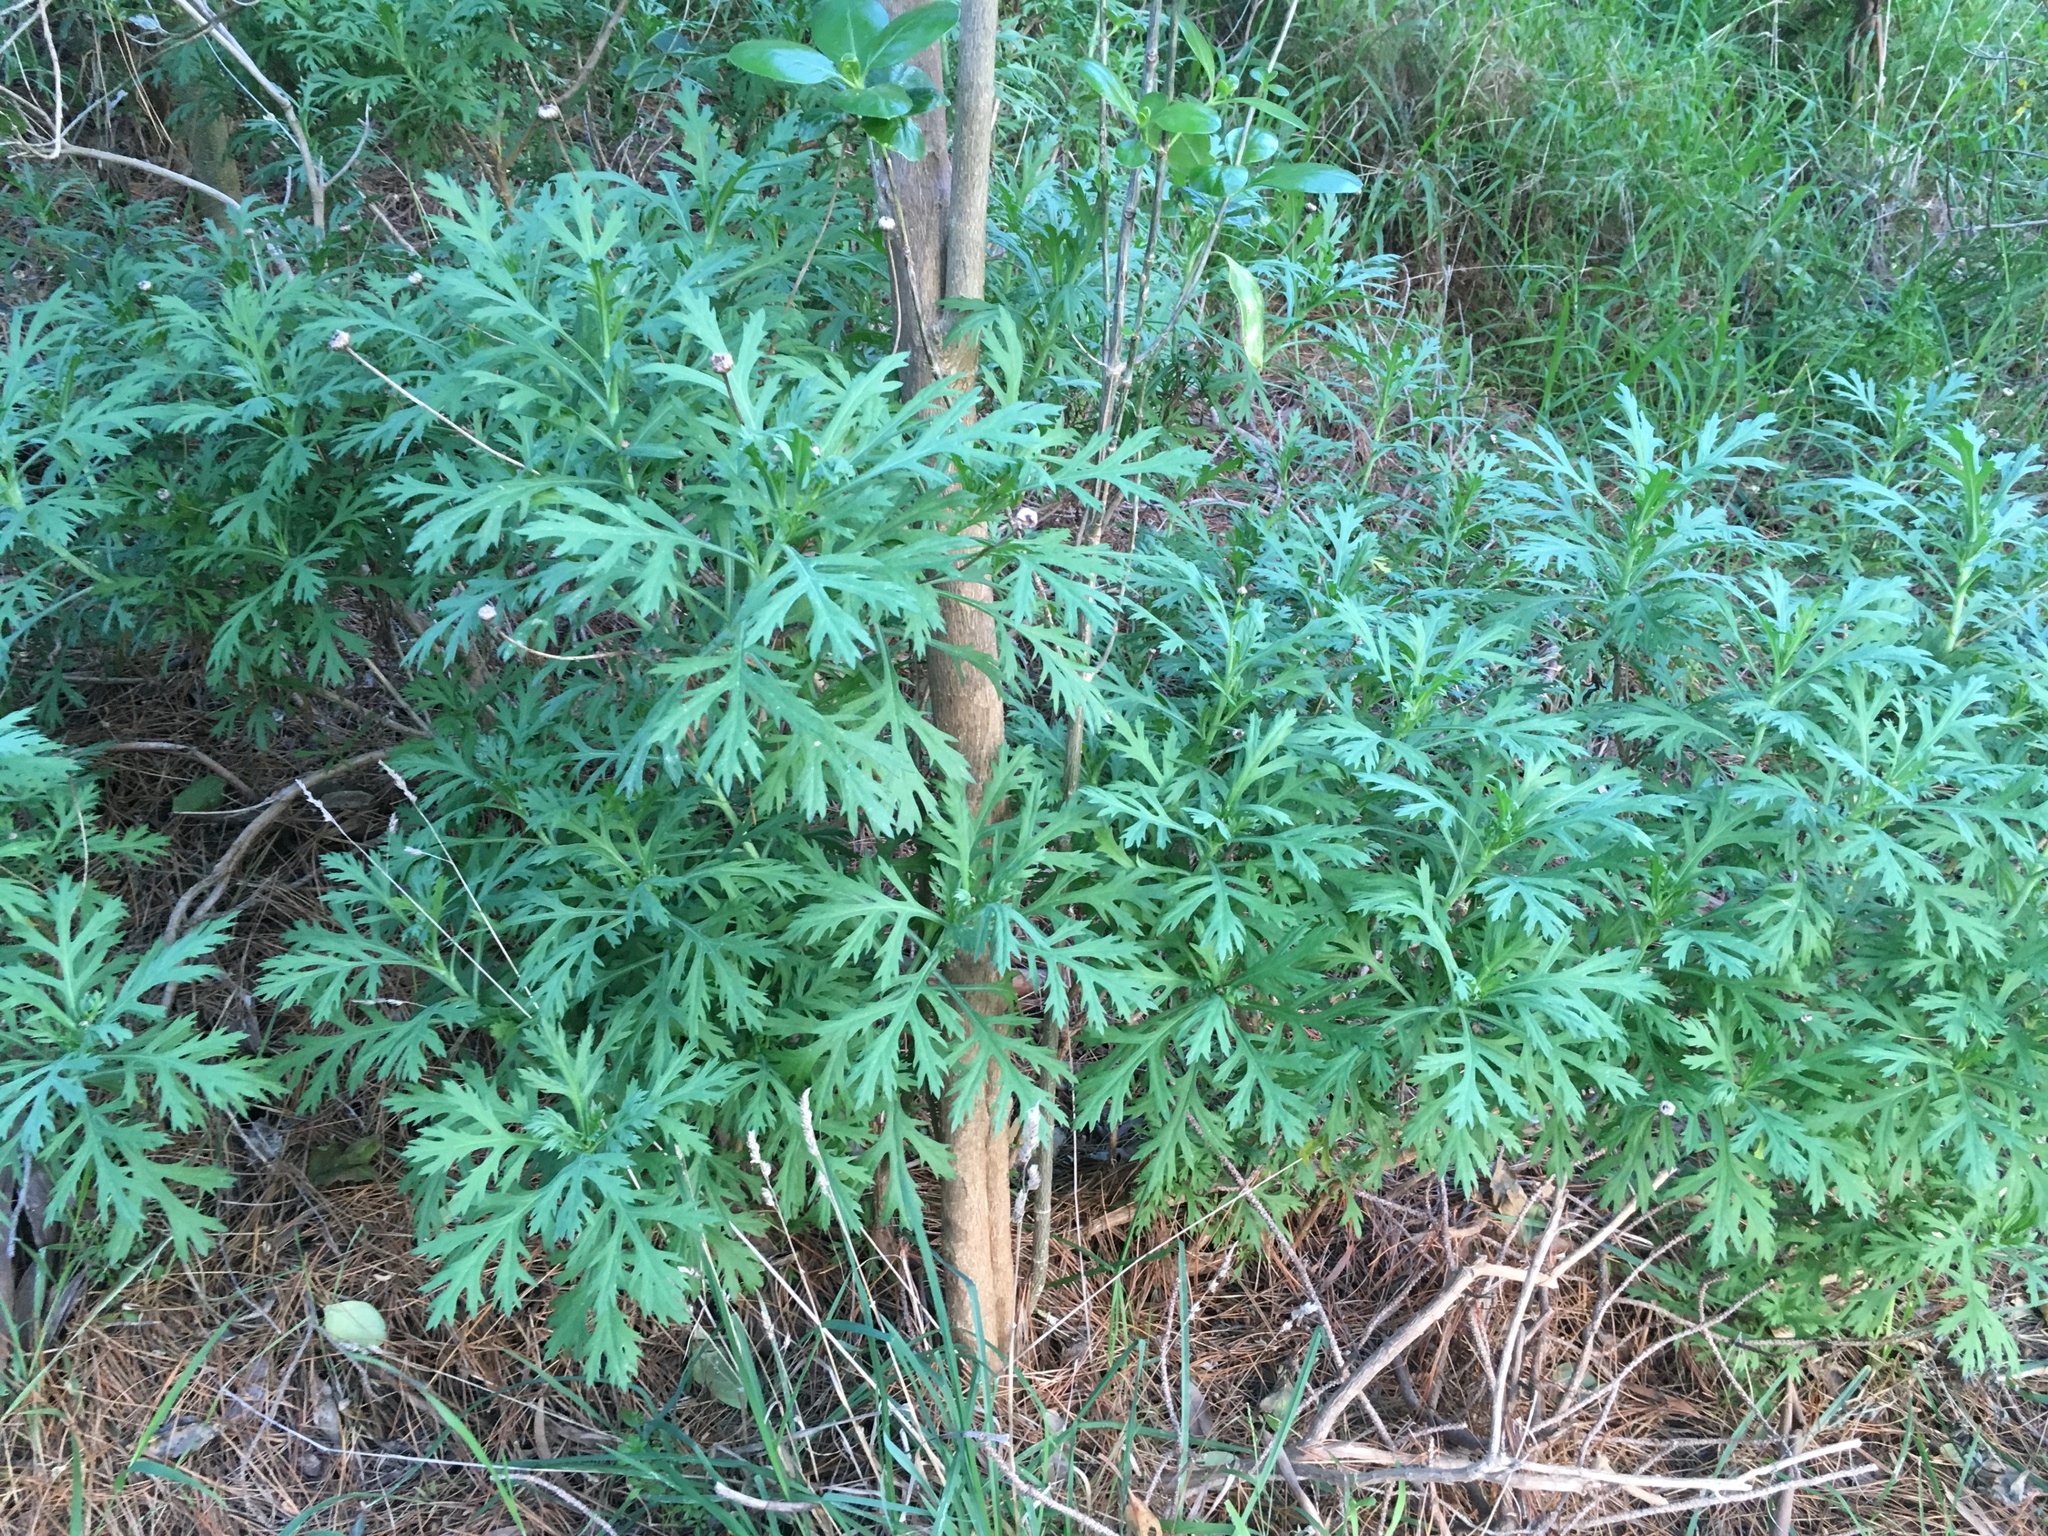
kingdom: Plantae
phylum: Tracheophyta
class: Magnoliopsida
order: Asterales
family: Asteraceae
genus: Argyranthemum
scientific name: Argyranthemum frutescens
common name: Paris daisy
